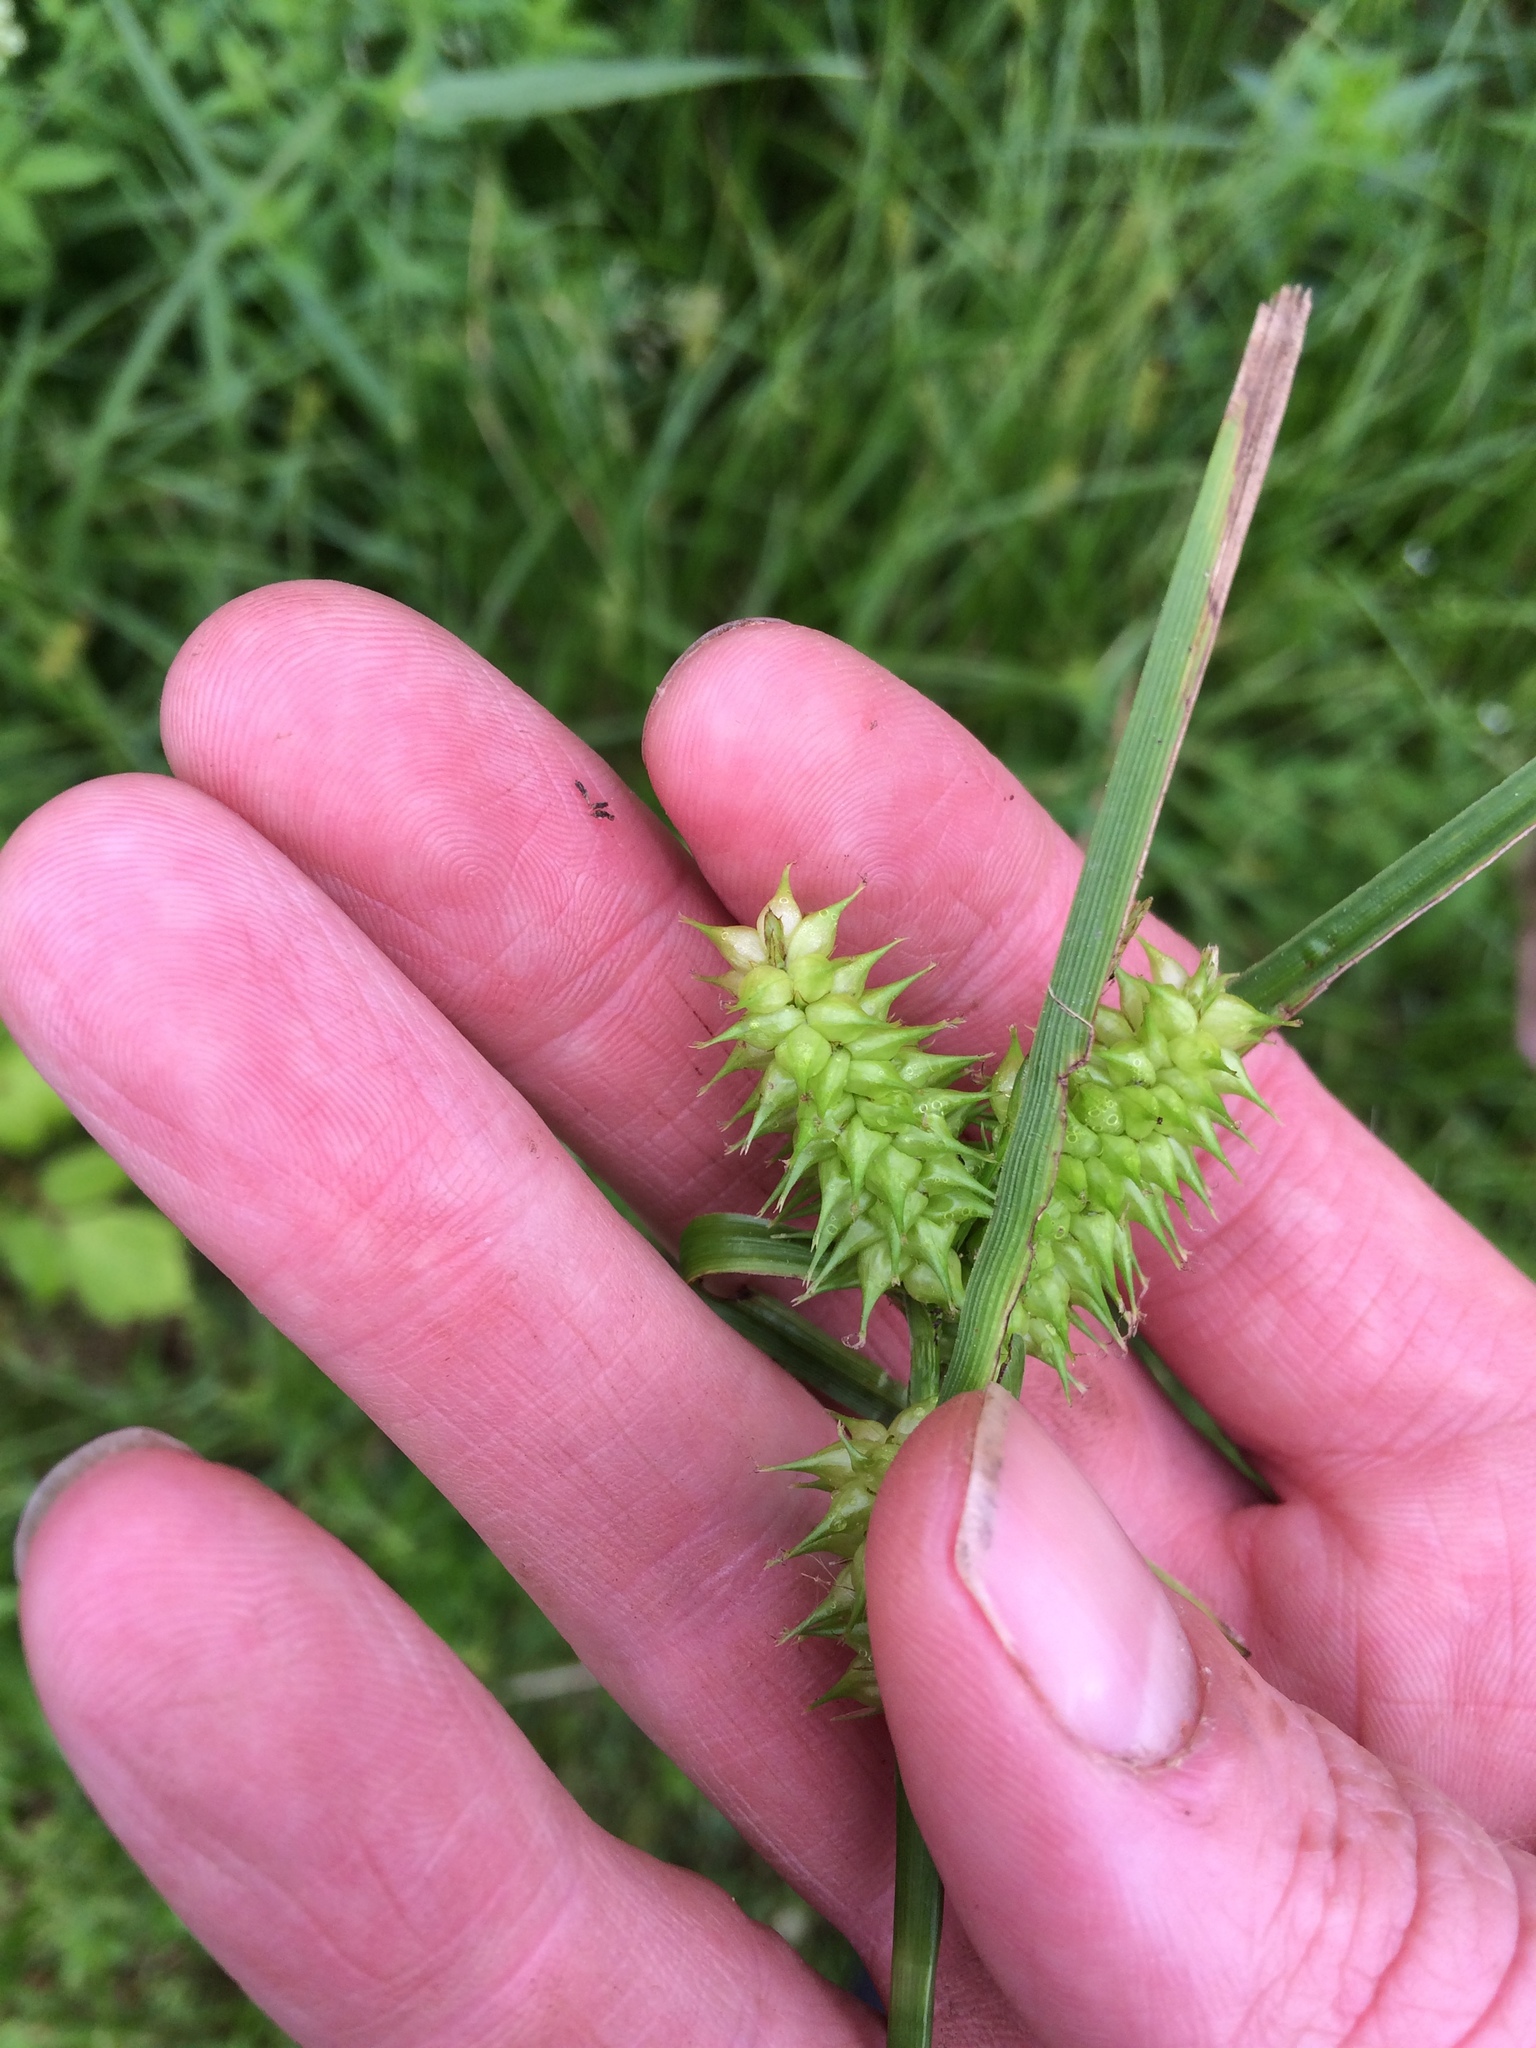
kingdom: Plantae
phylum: Tracheophyta
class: Liliopsida
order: Poales
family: Cyperaceae
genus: Carex
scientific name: Carex retrorsa
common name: Knot-sheath sedge
